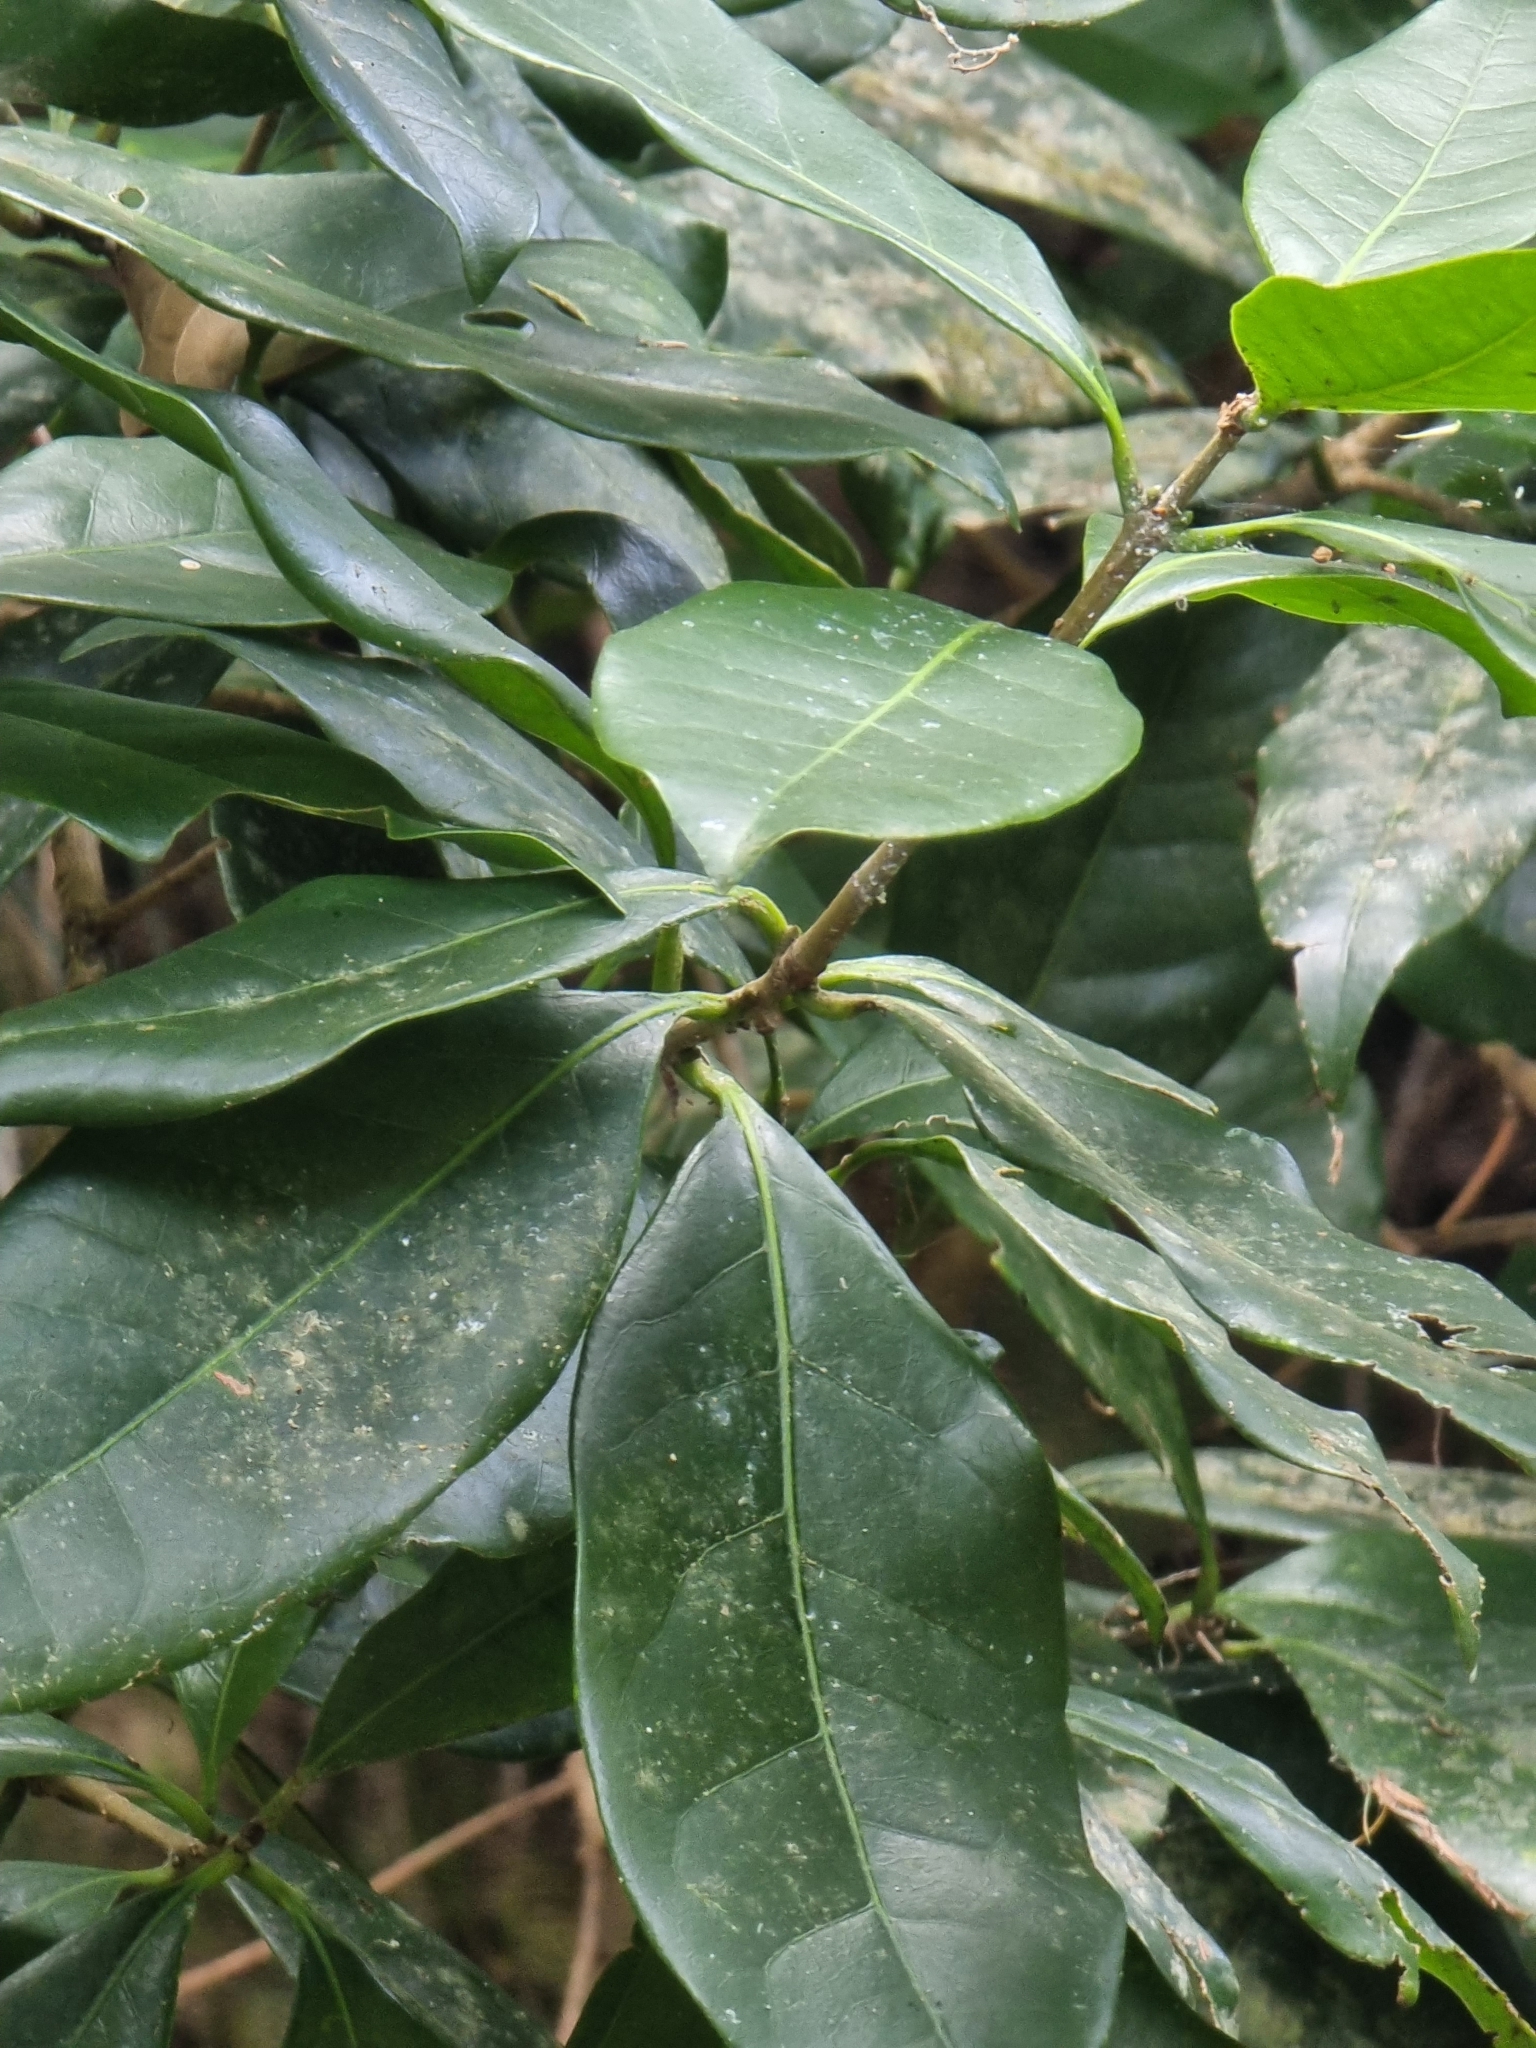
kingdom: Plantae
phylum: Tracheophyta
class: Magnoliopsida
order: Lamiales
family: Oleaceae
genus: Picconia
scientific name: Picconia excelsa
